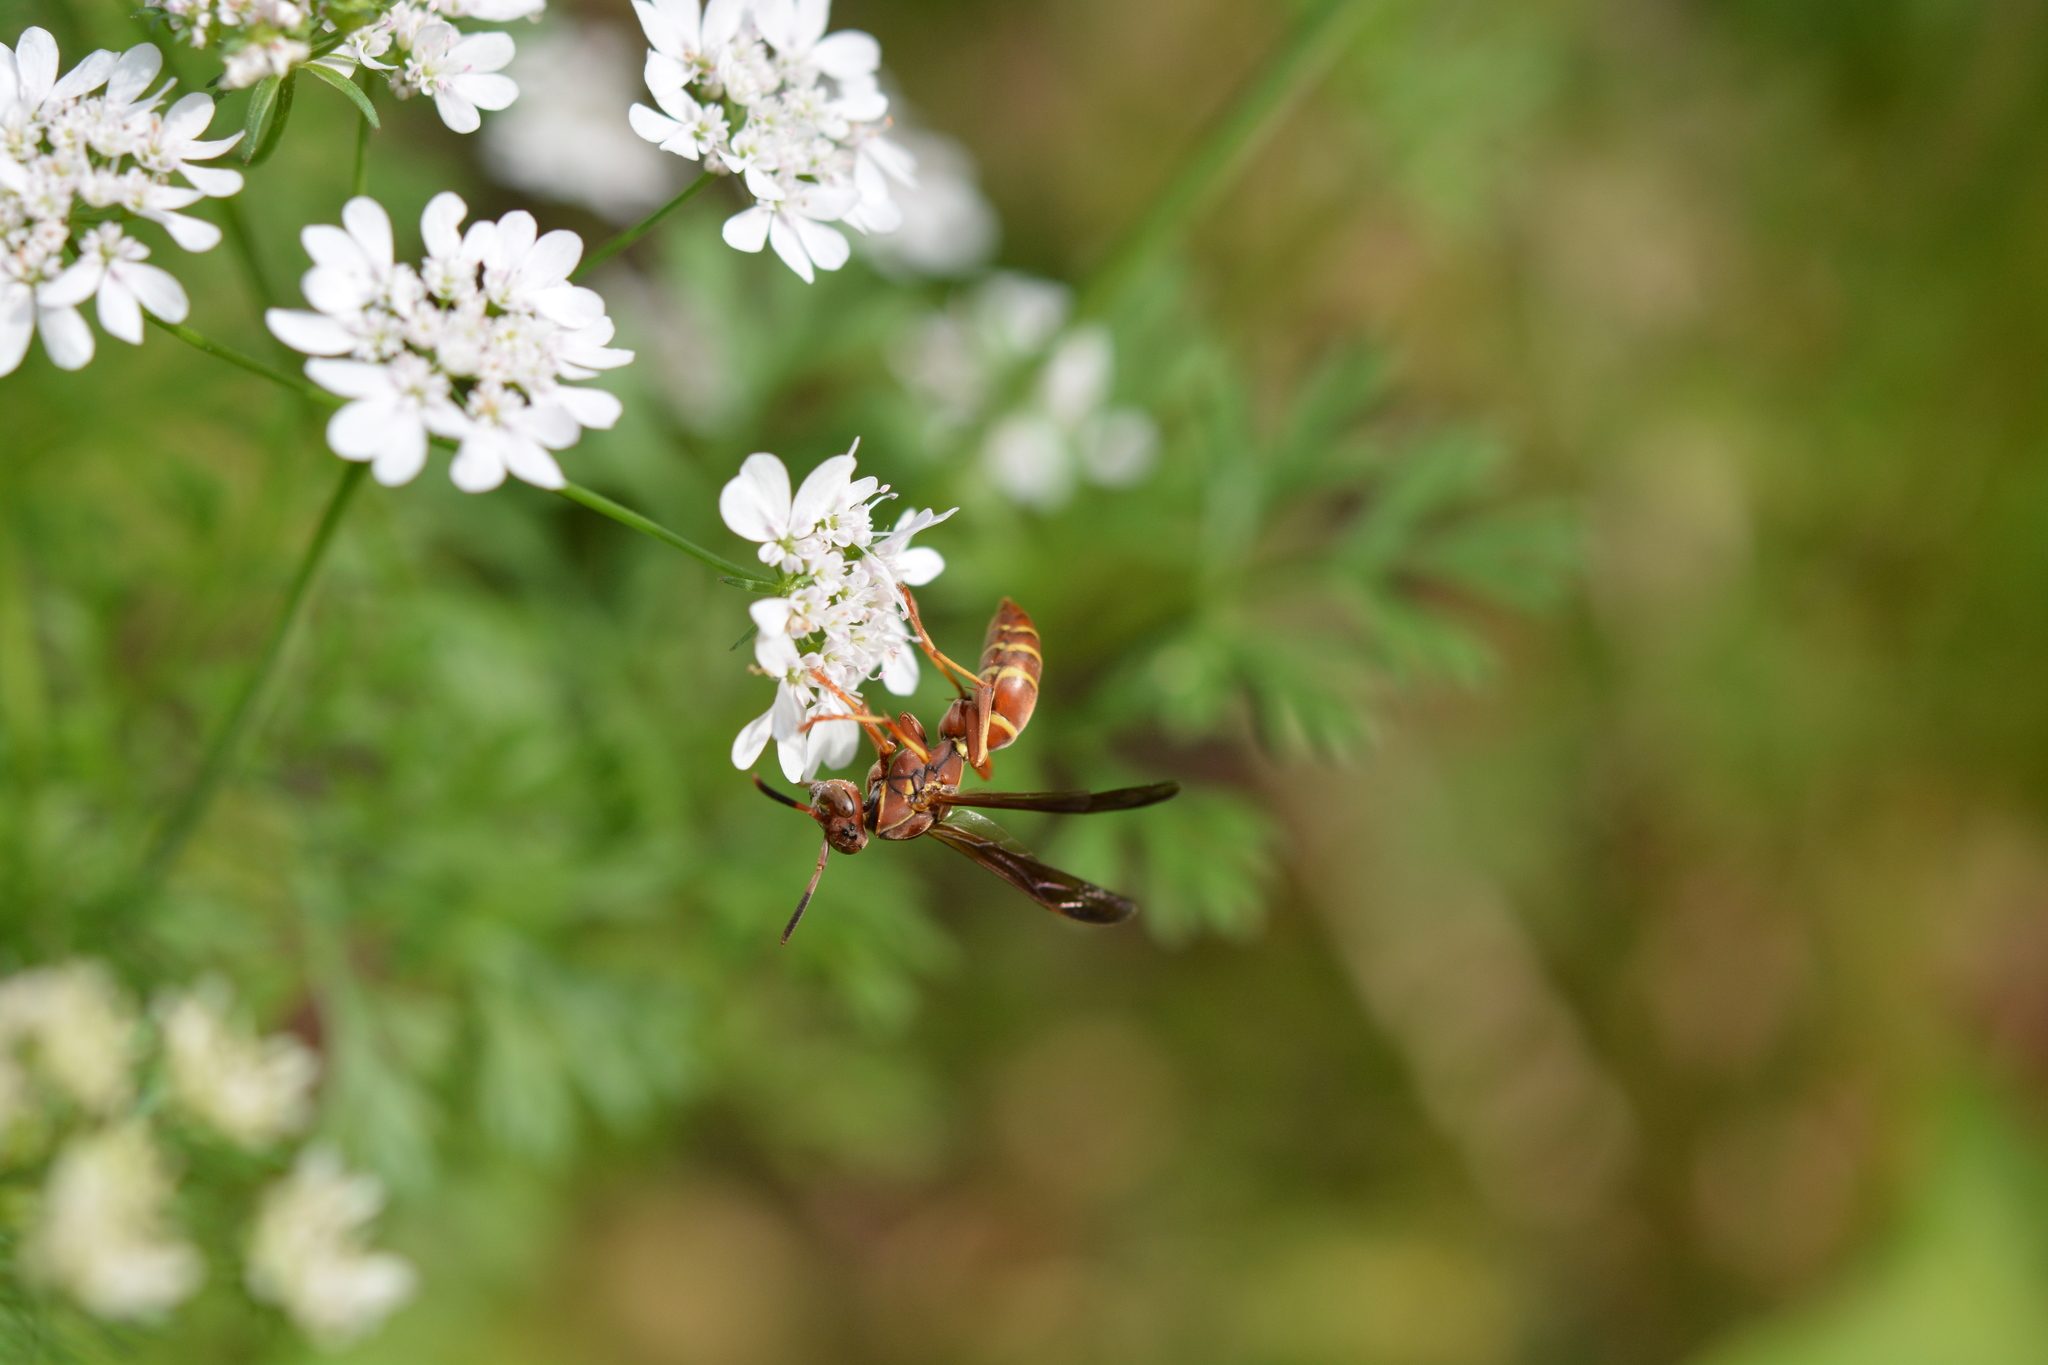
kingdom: Animalia
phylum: Arthropoda
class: Insecta
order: Hymenoptera
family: Eumenidae
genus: Polistes
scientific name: Polistes dorsalis
